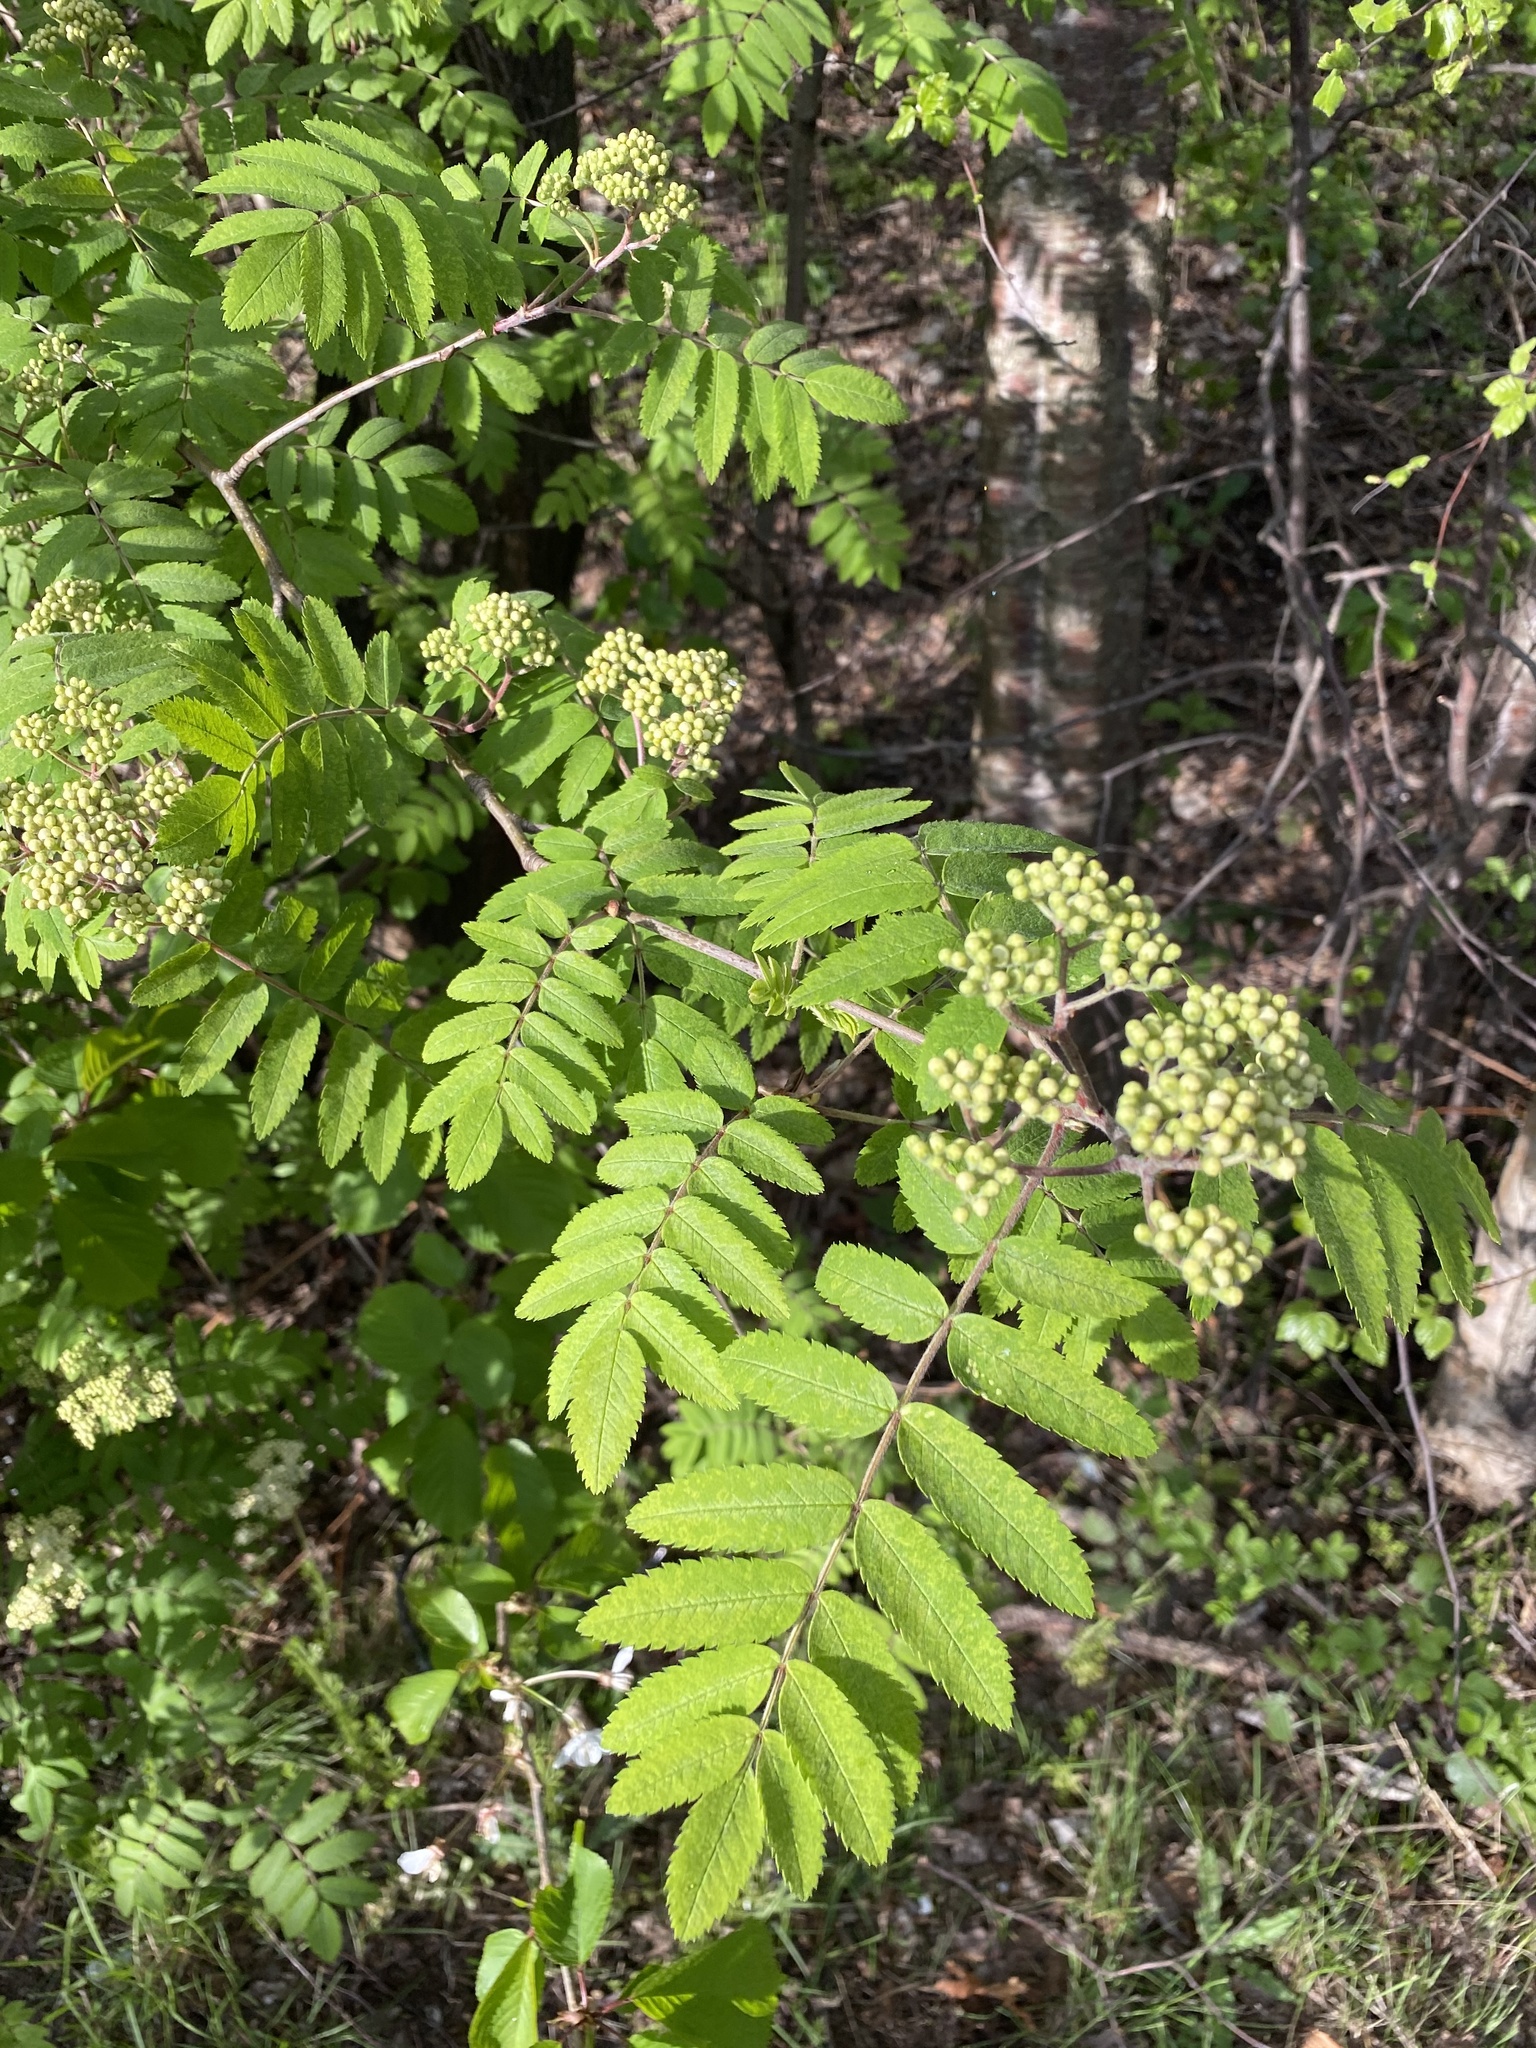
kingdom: Plantae
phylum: Tracheophyta
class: Magnoliopsida
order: Rosales
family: Rosaceae
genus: Sorbus
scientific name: Sorbus aucuparia
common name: Rowan
